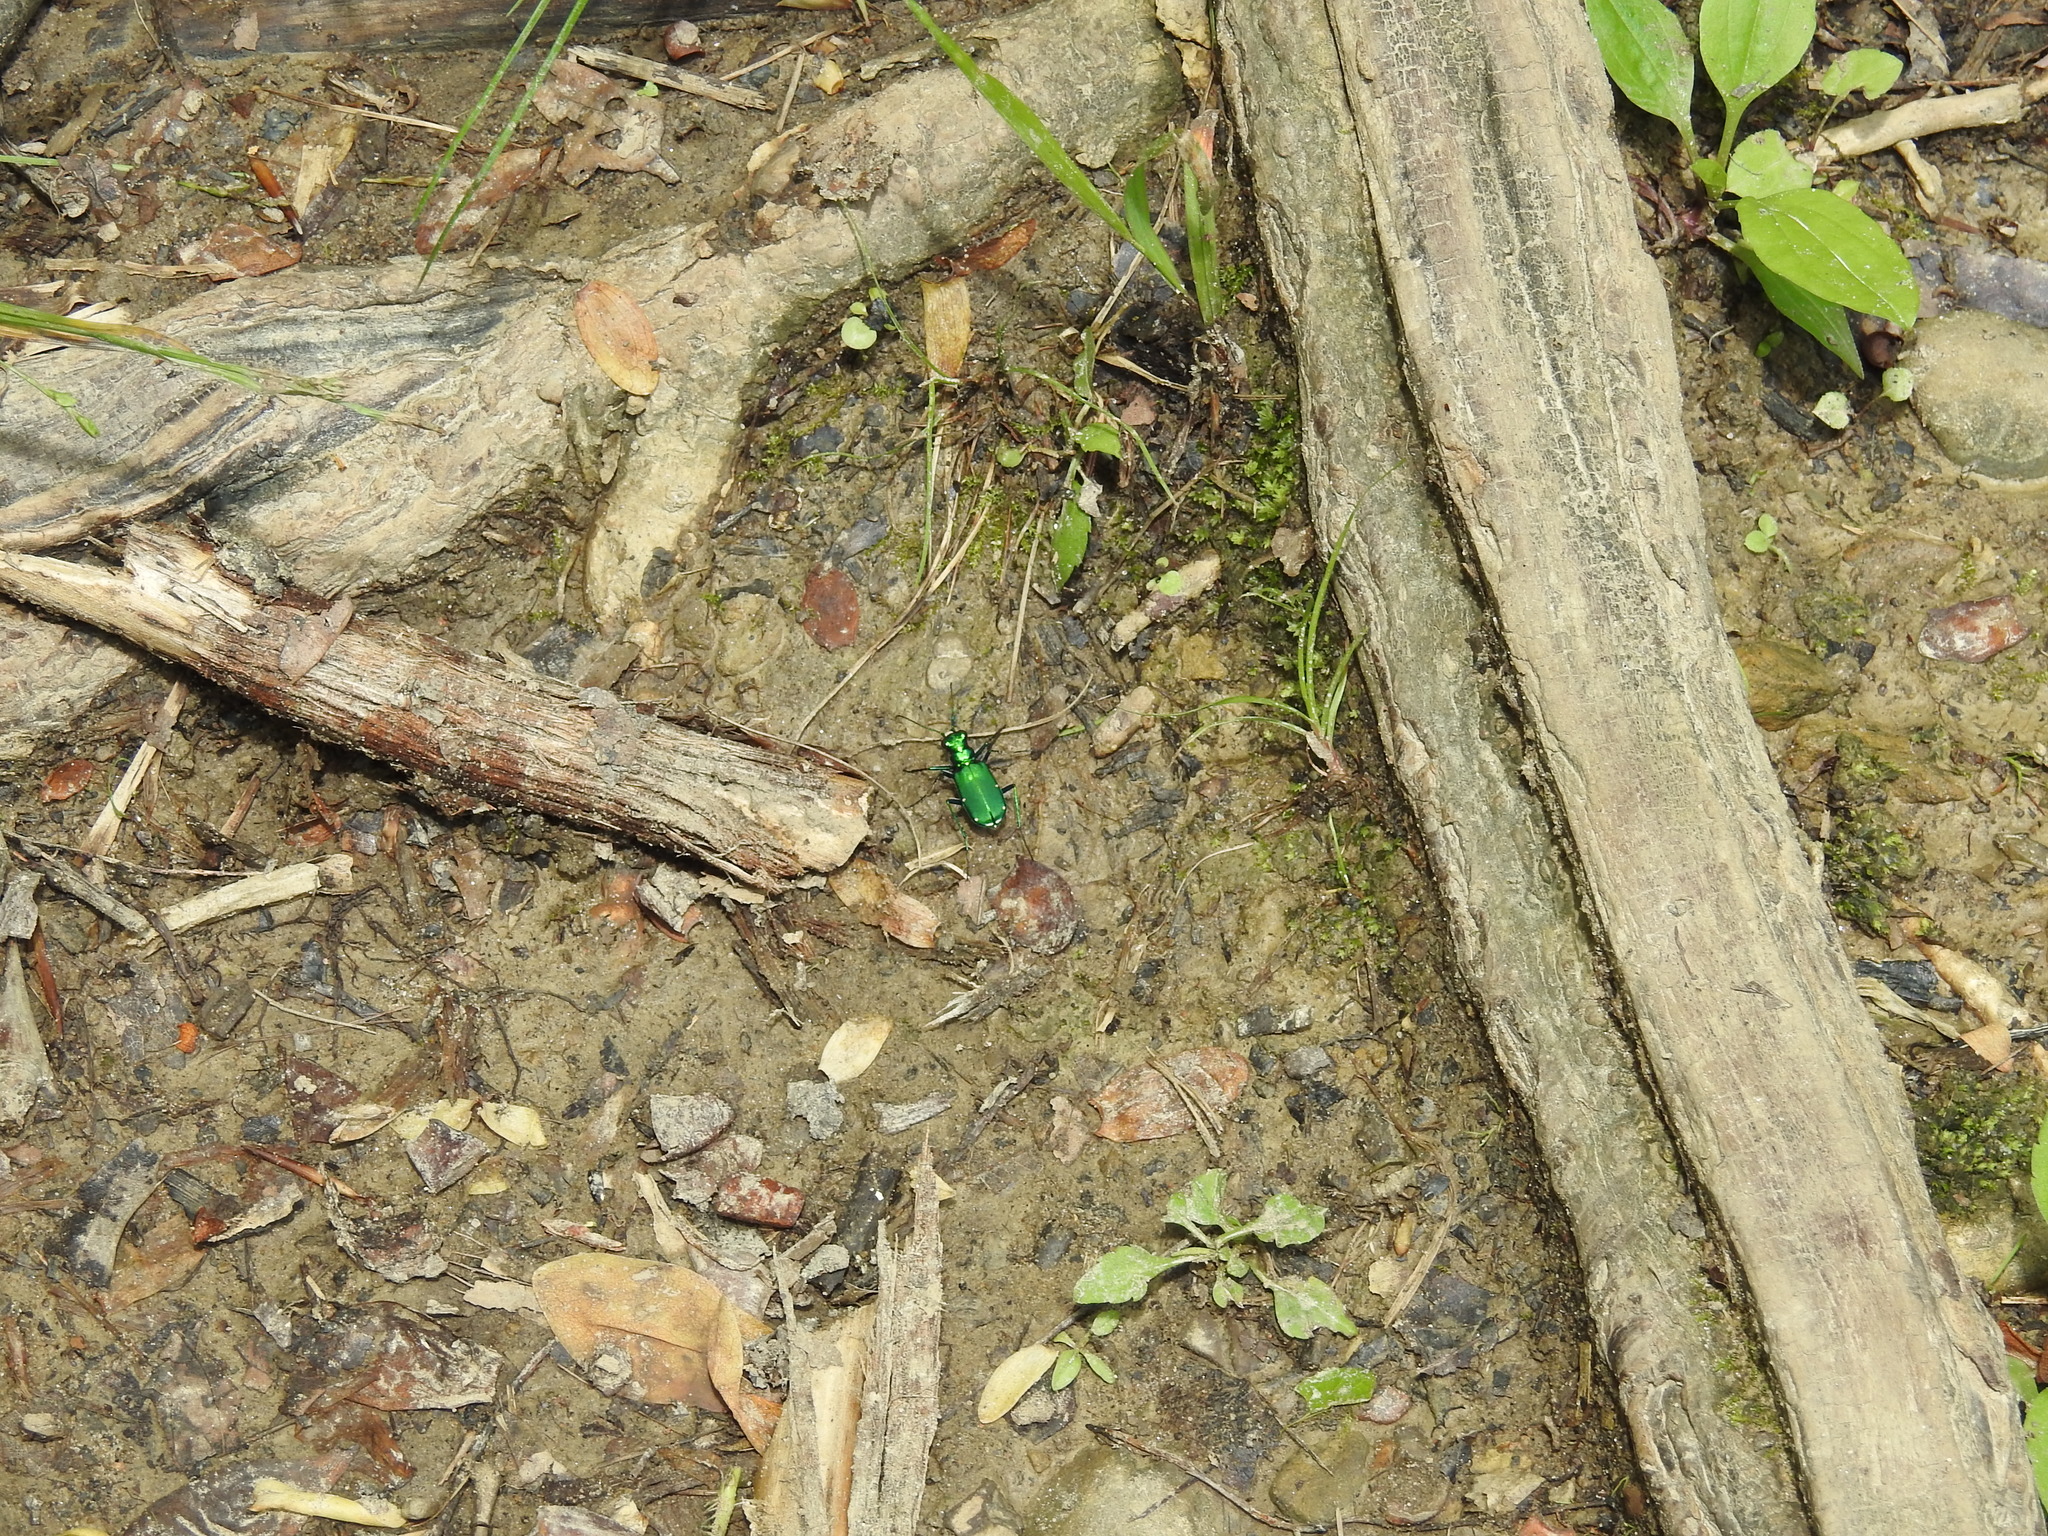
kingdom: Animalia
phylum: Arthropoda
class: Insecta
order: Coleoptera
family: Carabidae
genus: Cicindela
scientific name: Cicindela sexguttata
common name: Six-spotted tiger beetle
